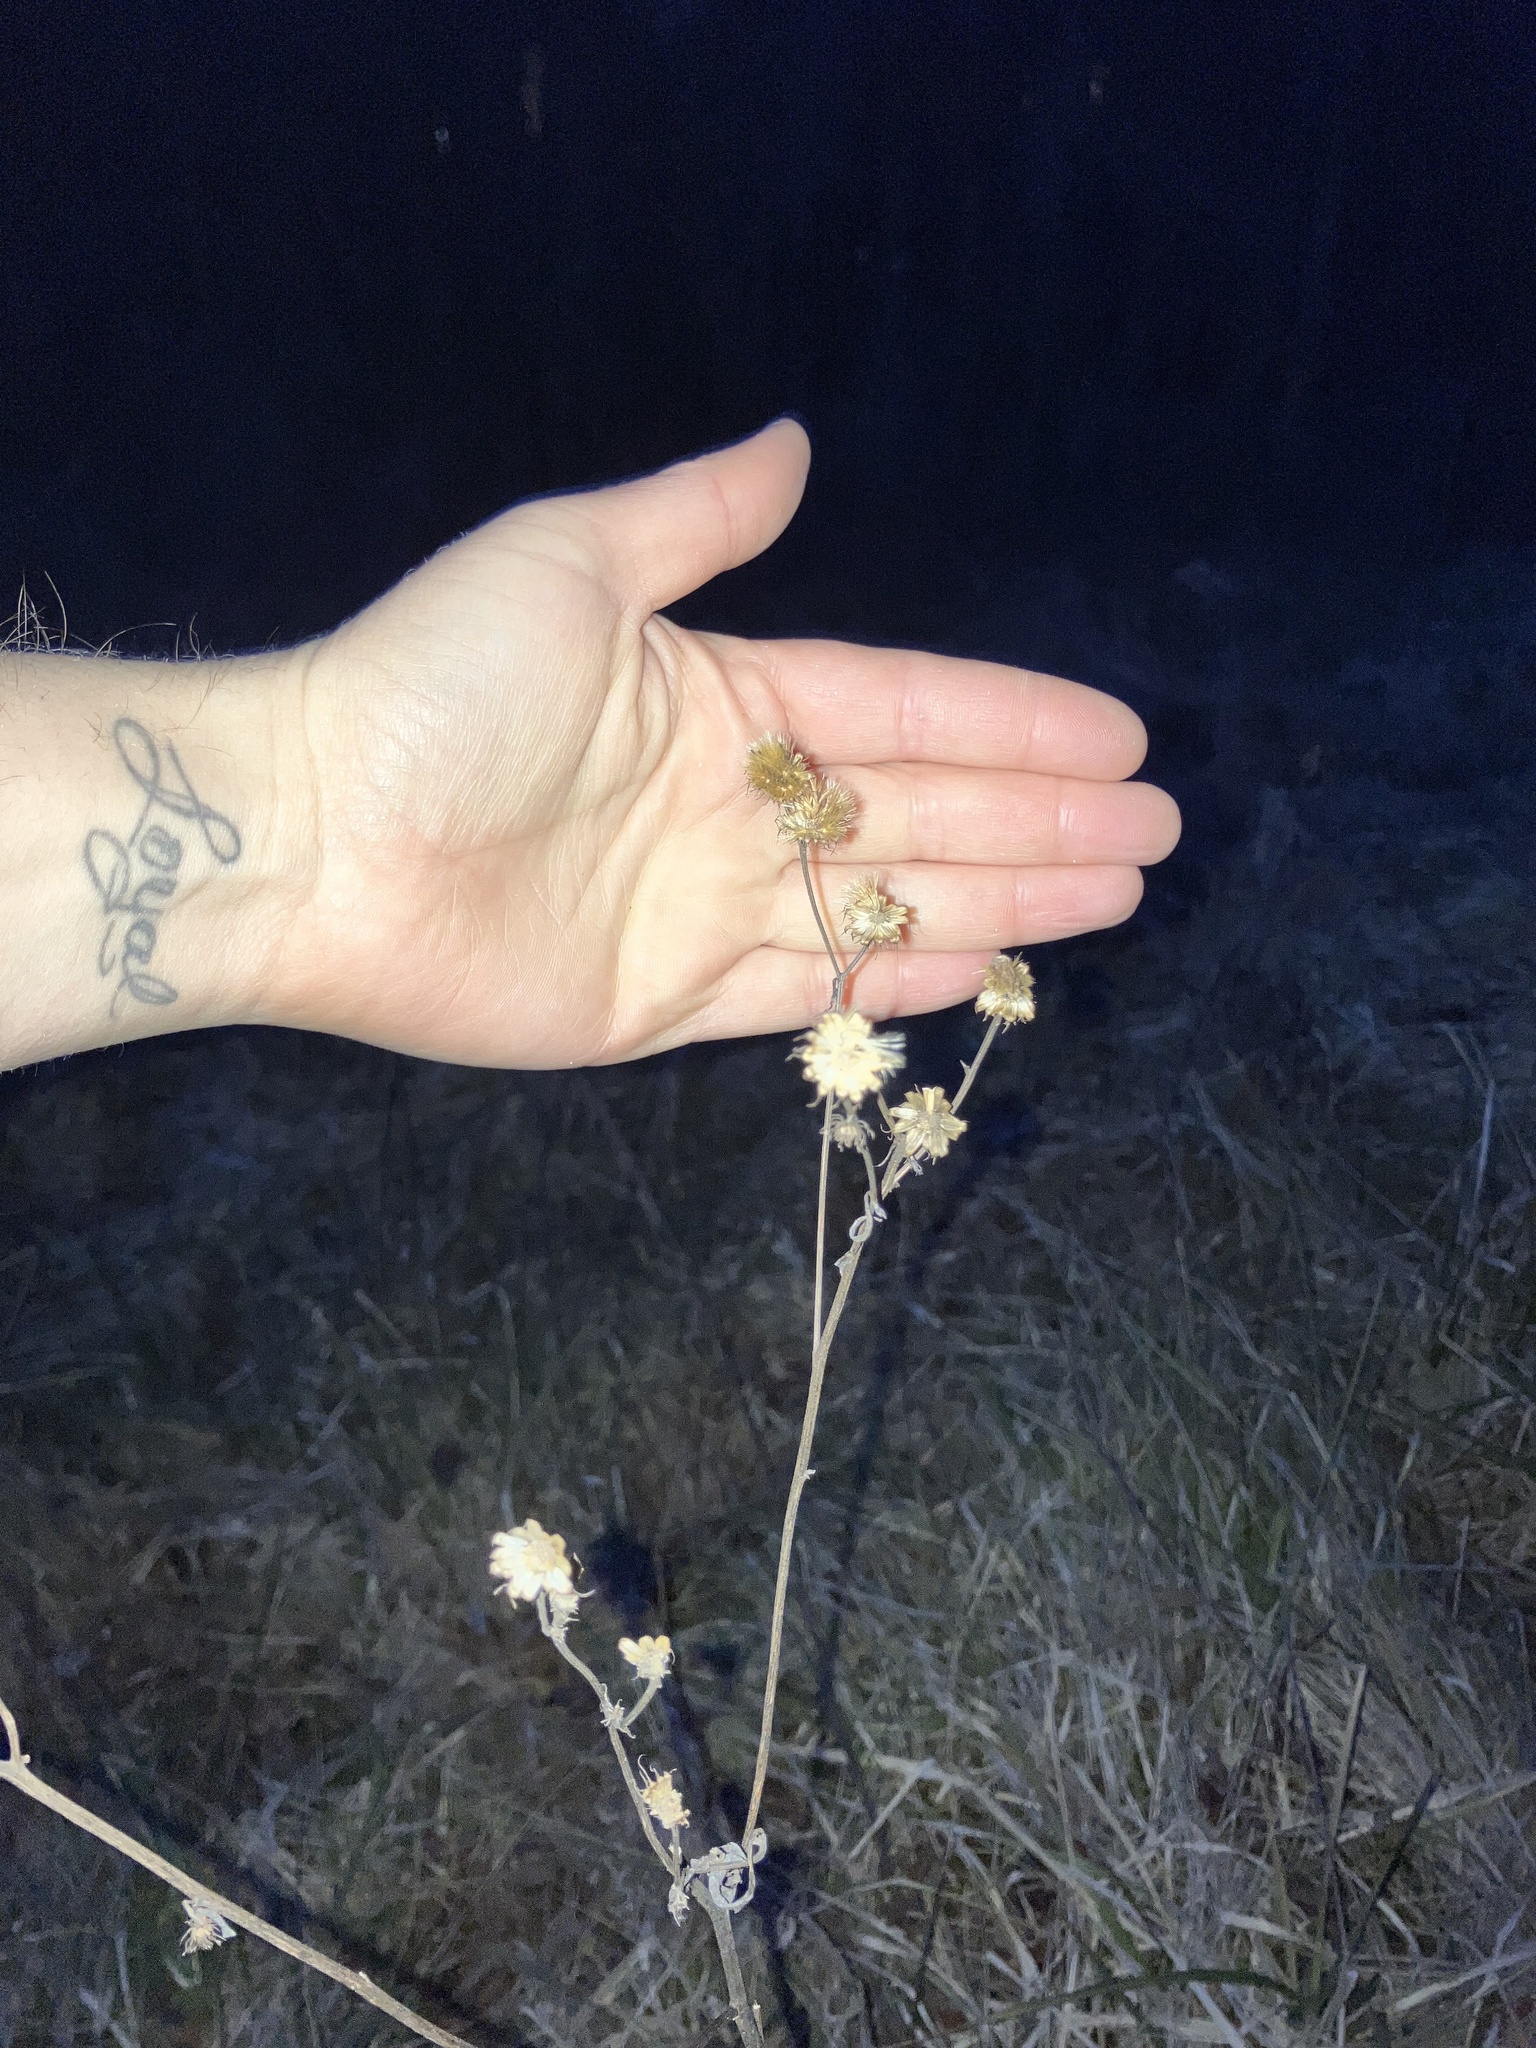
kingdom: Plantae
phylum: Tracheophyta
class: Magnoliopsida
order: Asterales
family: Asteraceae
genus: Vernonia
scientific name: Vernonia noveboracensis
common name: New york ironweed
